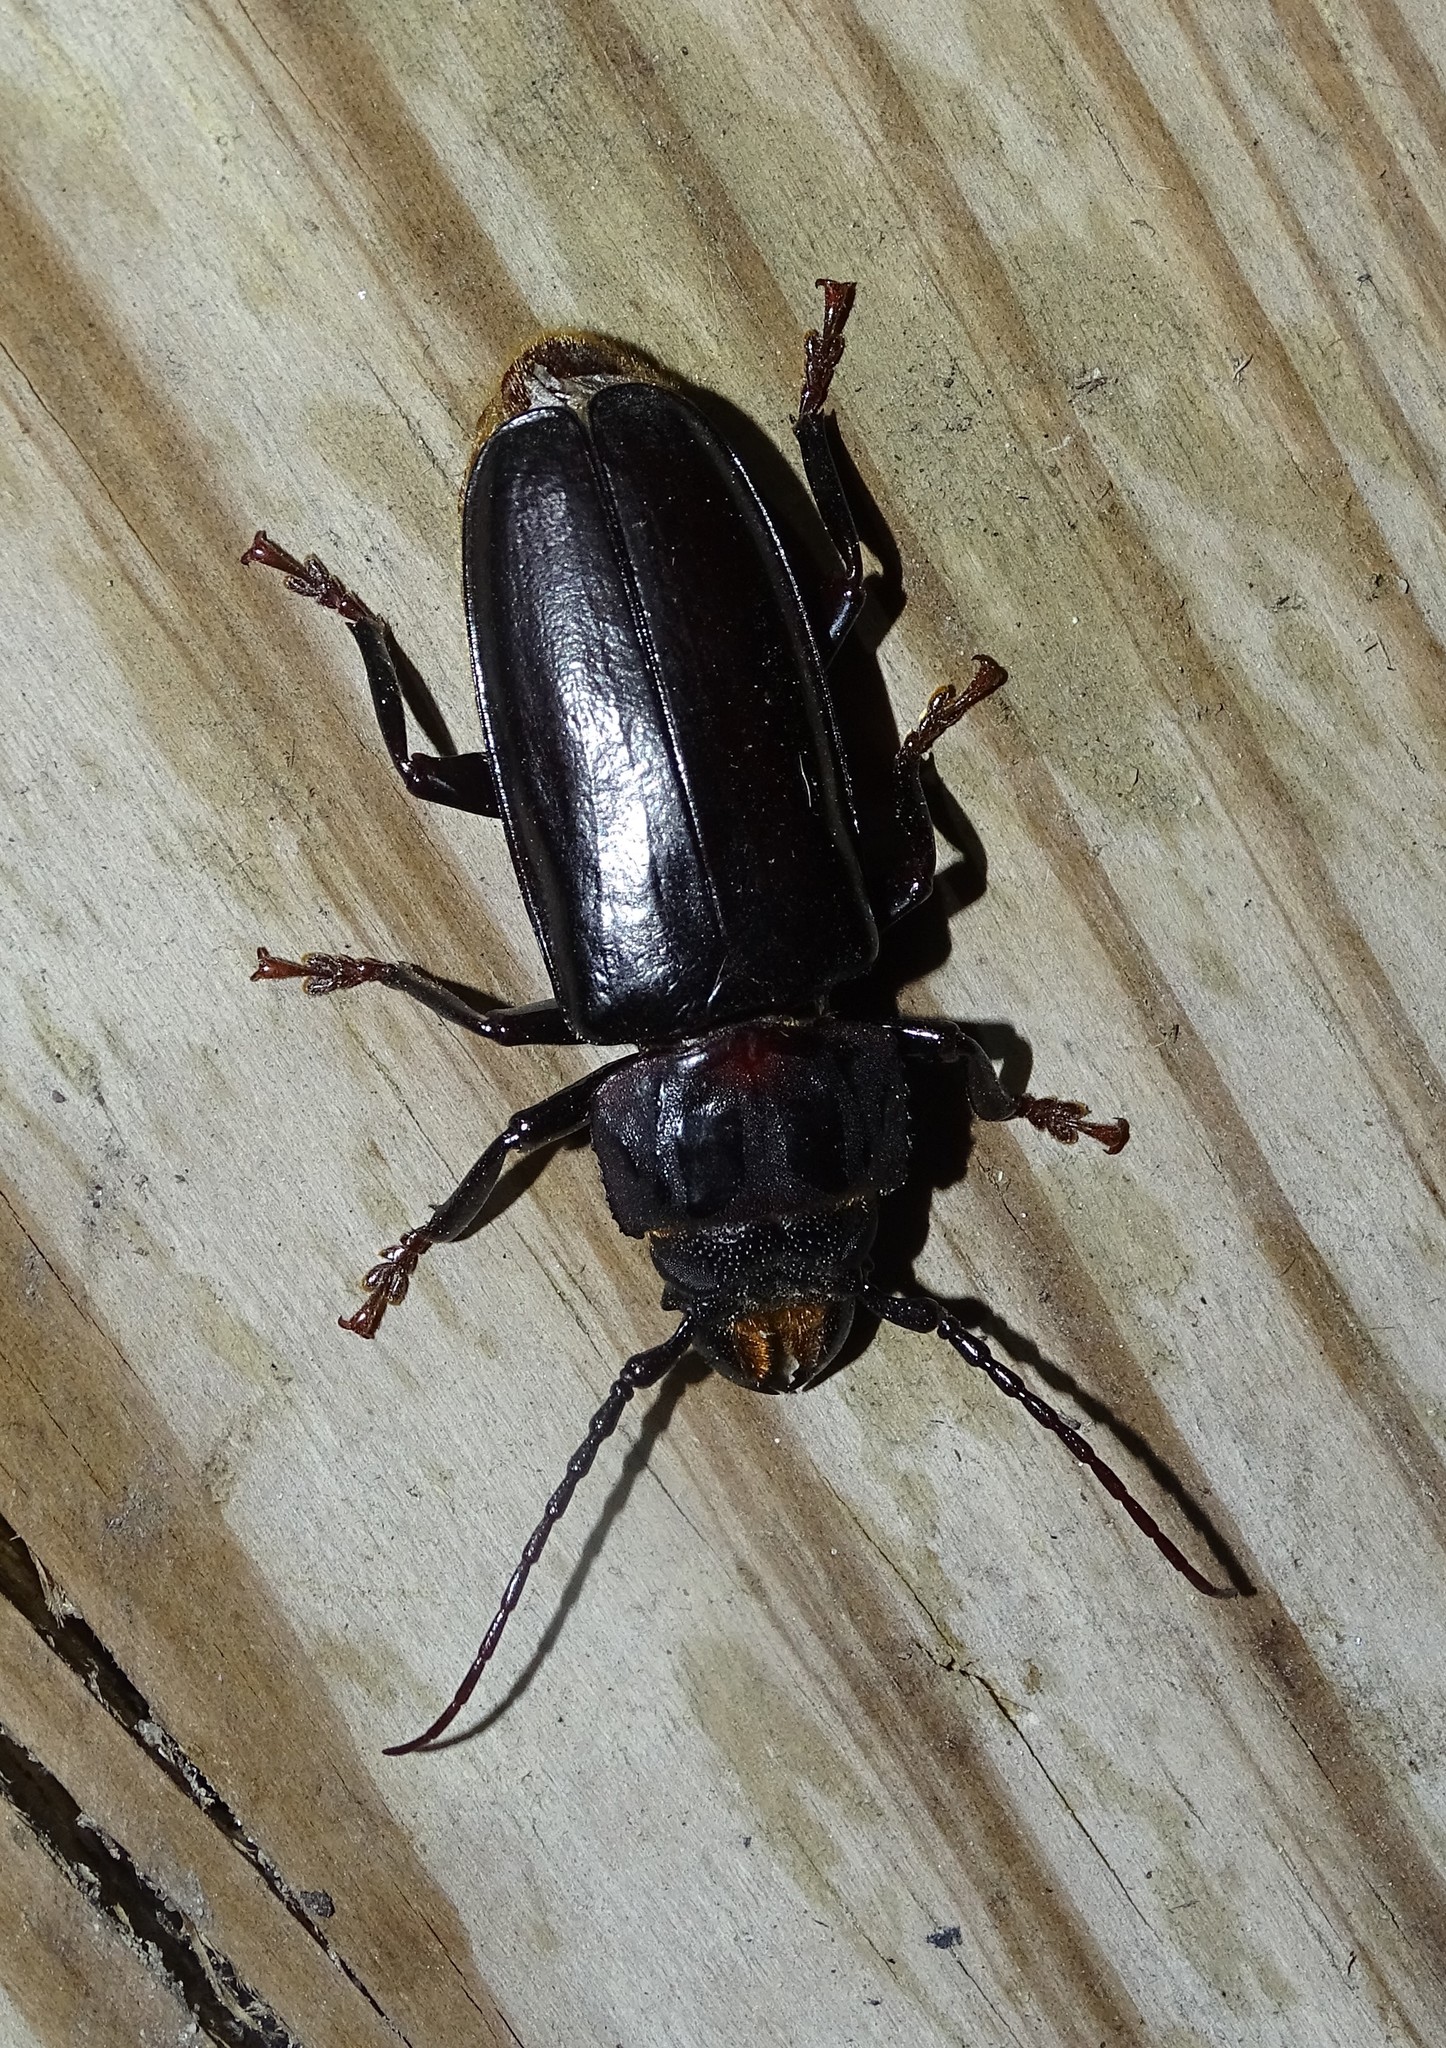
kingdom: Animalia
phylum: Arthropoda
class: Insecta
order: Coleoptera
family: Cerambycidae
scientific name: Cerambycidae
